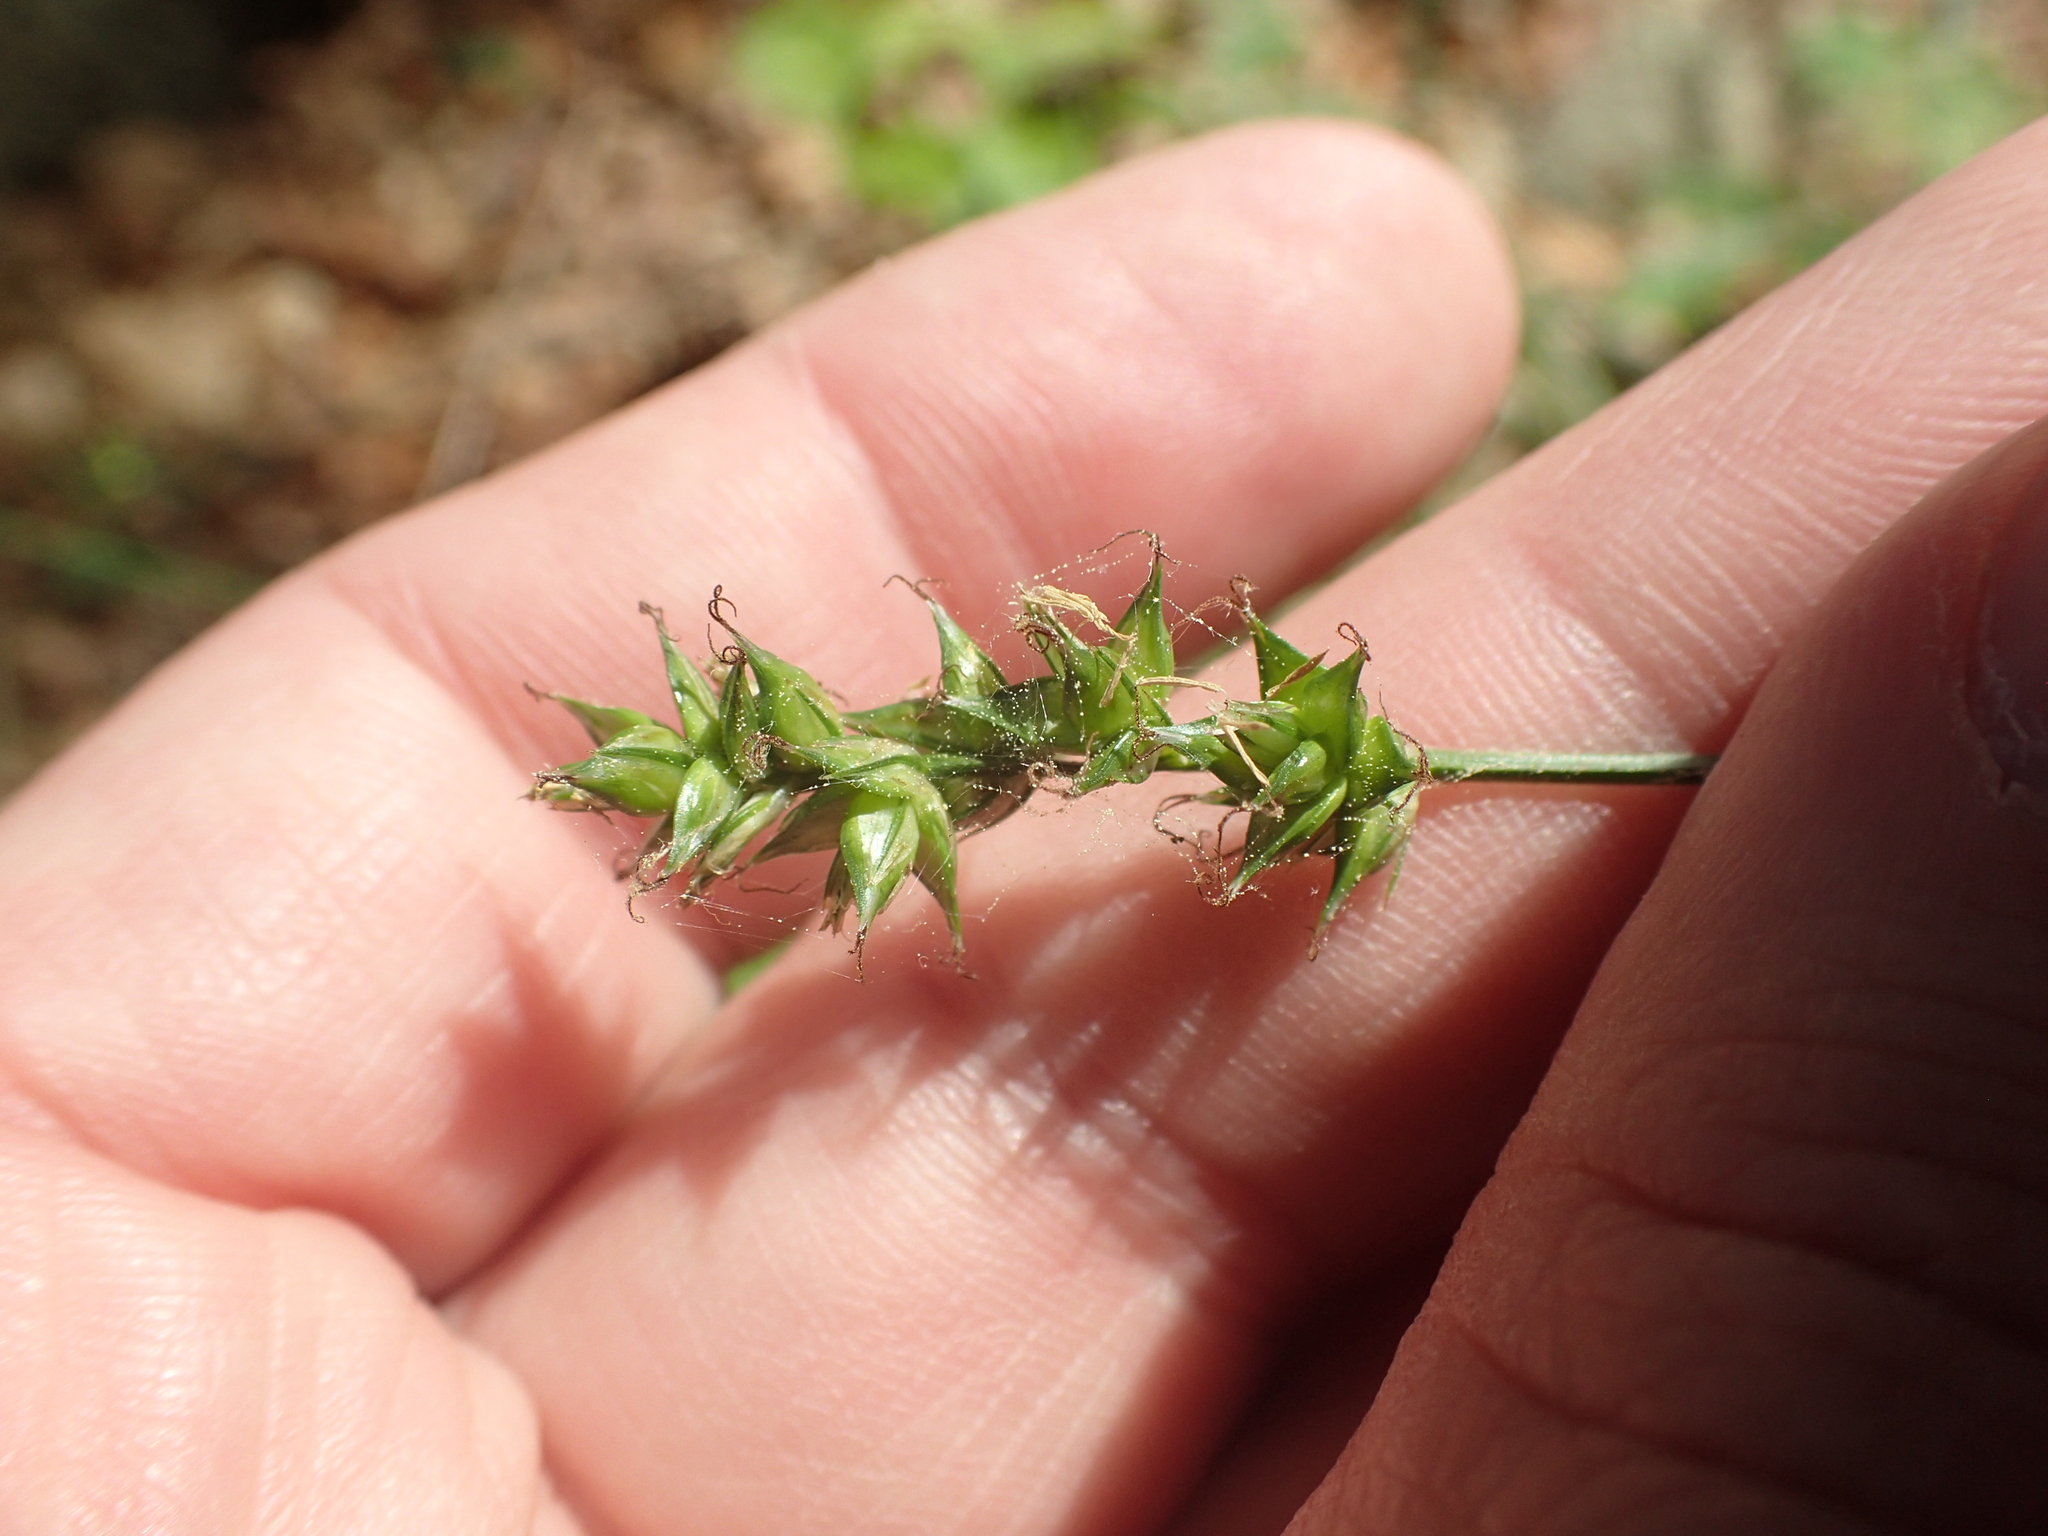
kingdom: Plantae
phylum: Tracheophyta
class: Liliopsida
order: Poales
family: Cyperaceae
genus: Carex
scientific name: Carex spicata
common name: Spiked sedge
